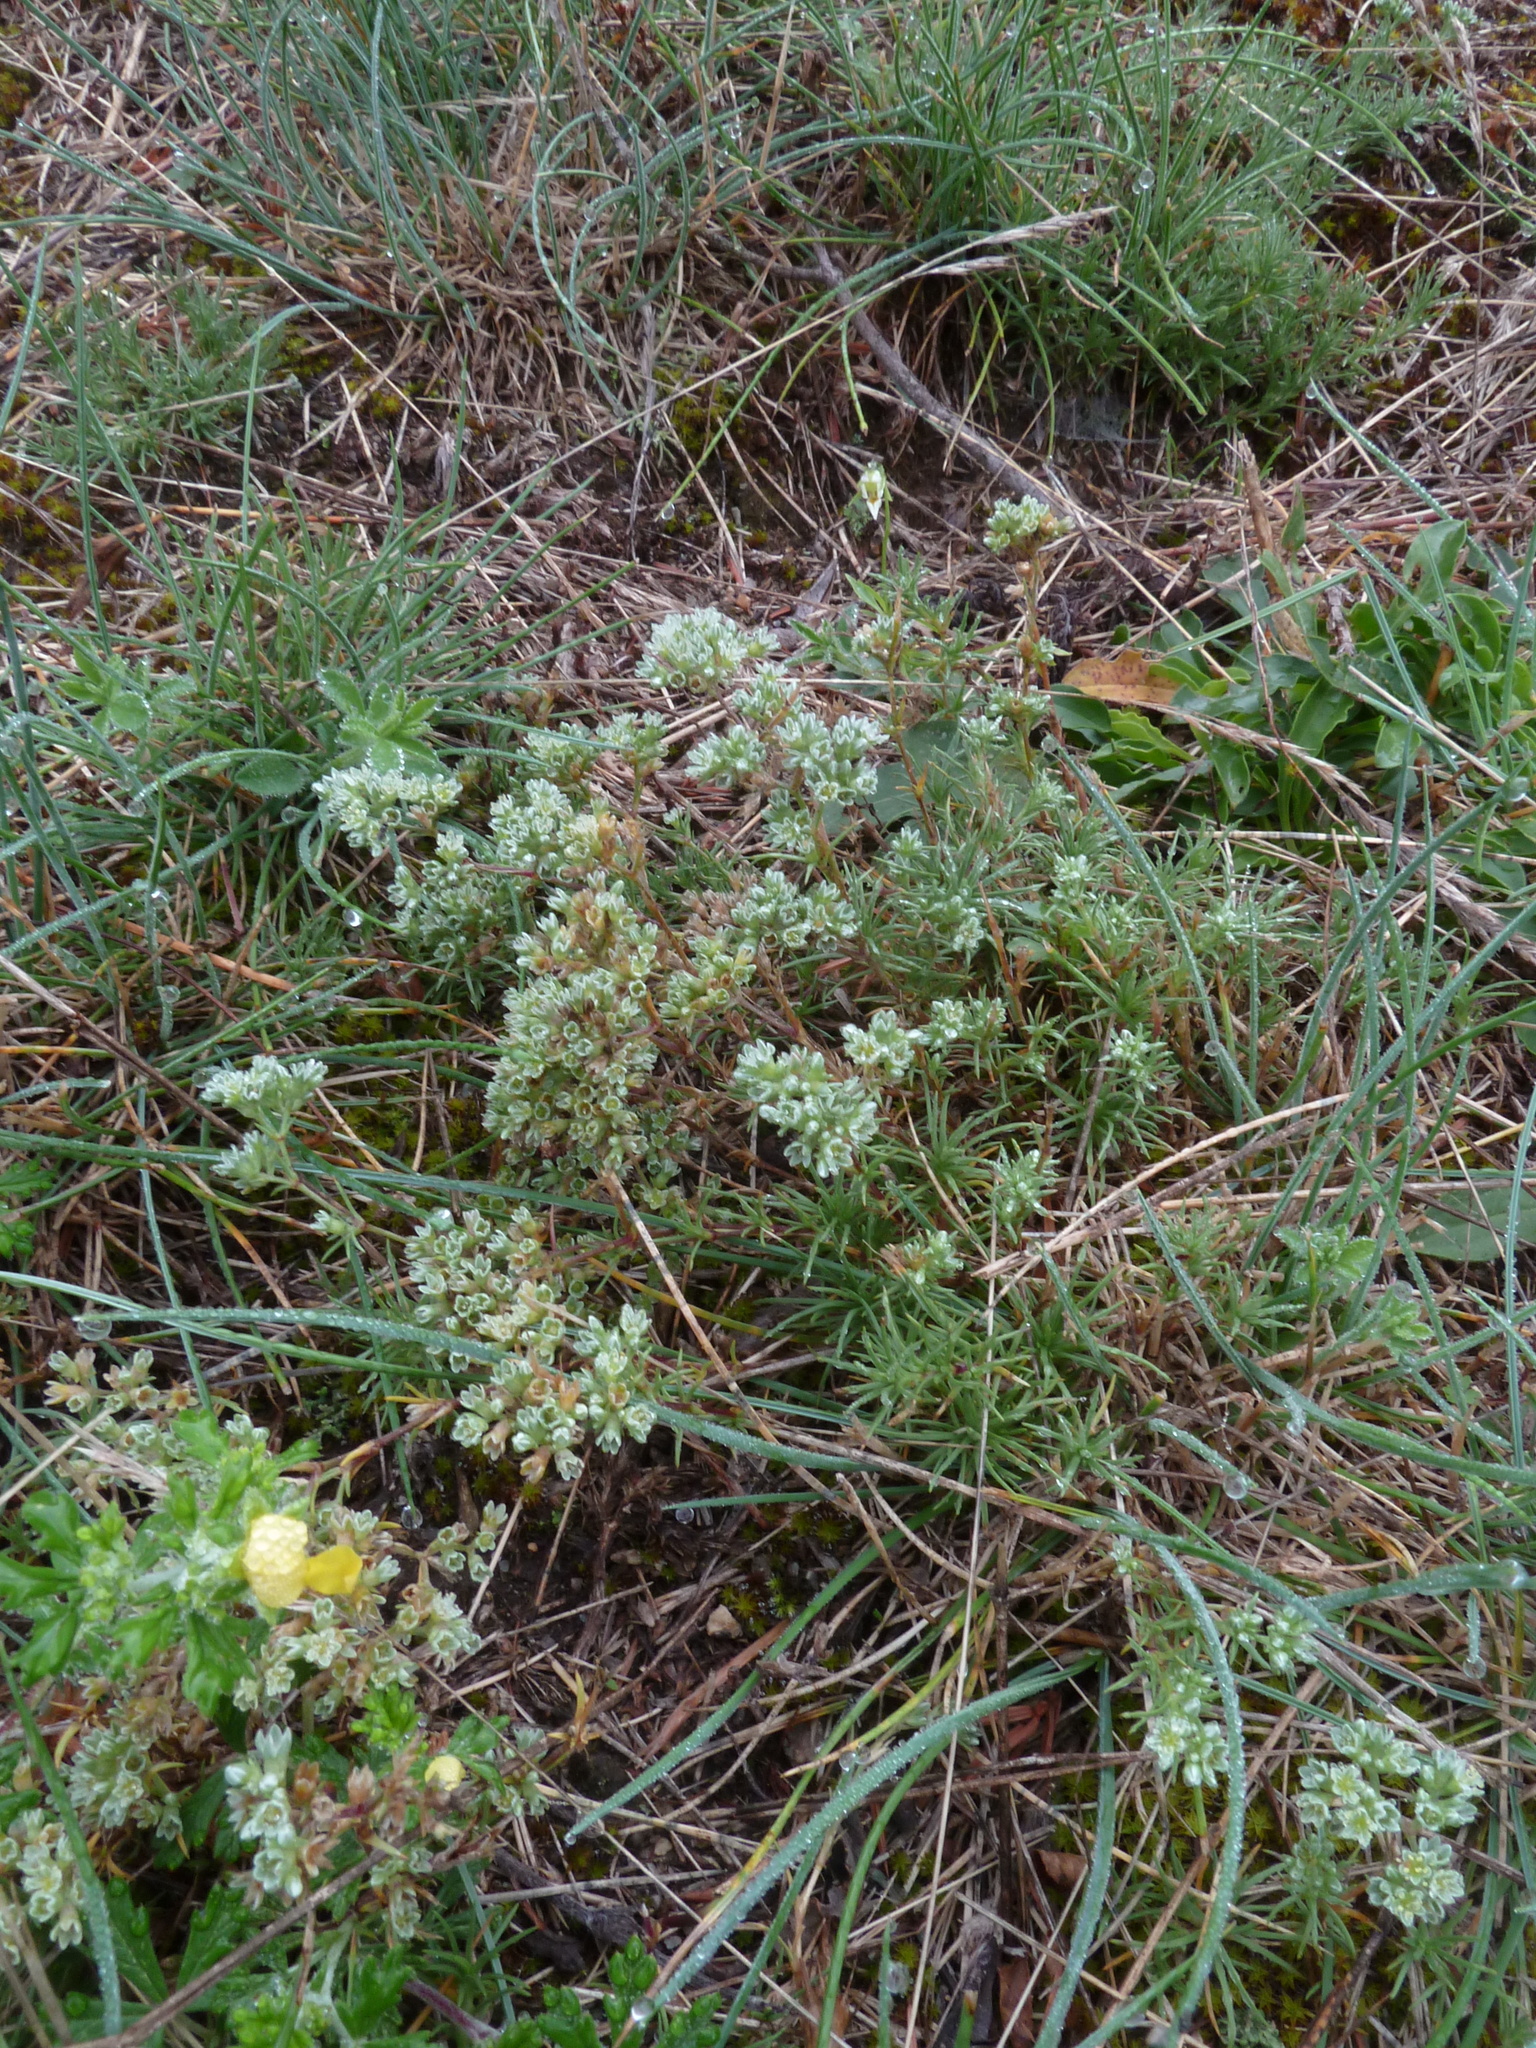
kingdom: Plantae
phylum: Tracheophyta
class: Magnoliopsida
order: Caryophyllales
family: Caryophyllaceae
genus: Scleranthus
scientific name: Scleranthus perennis
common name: Perennial knawel
